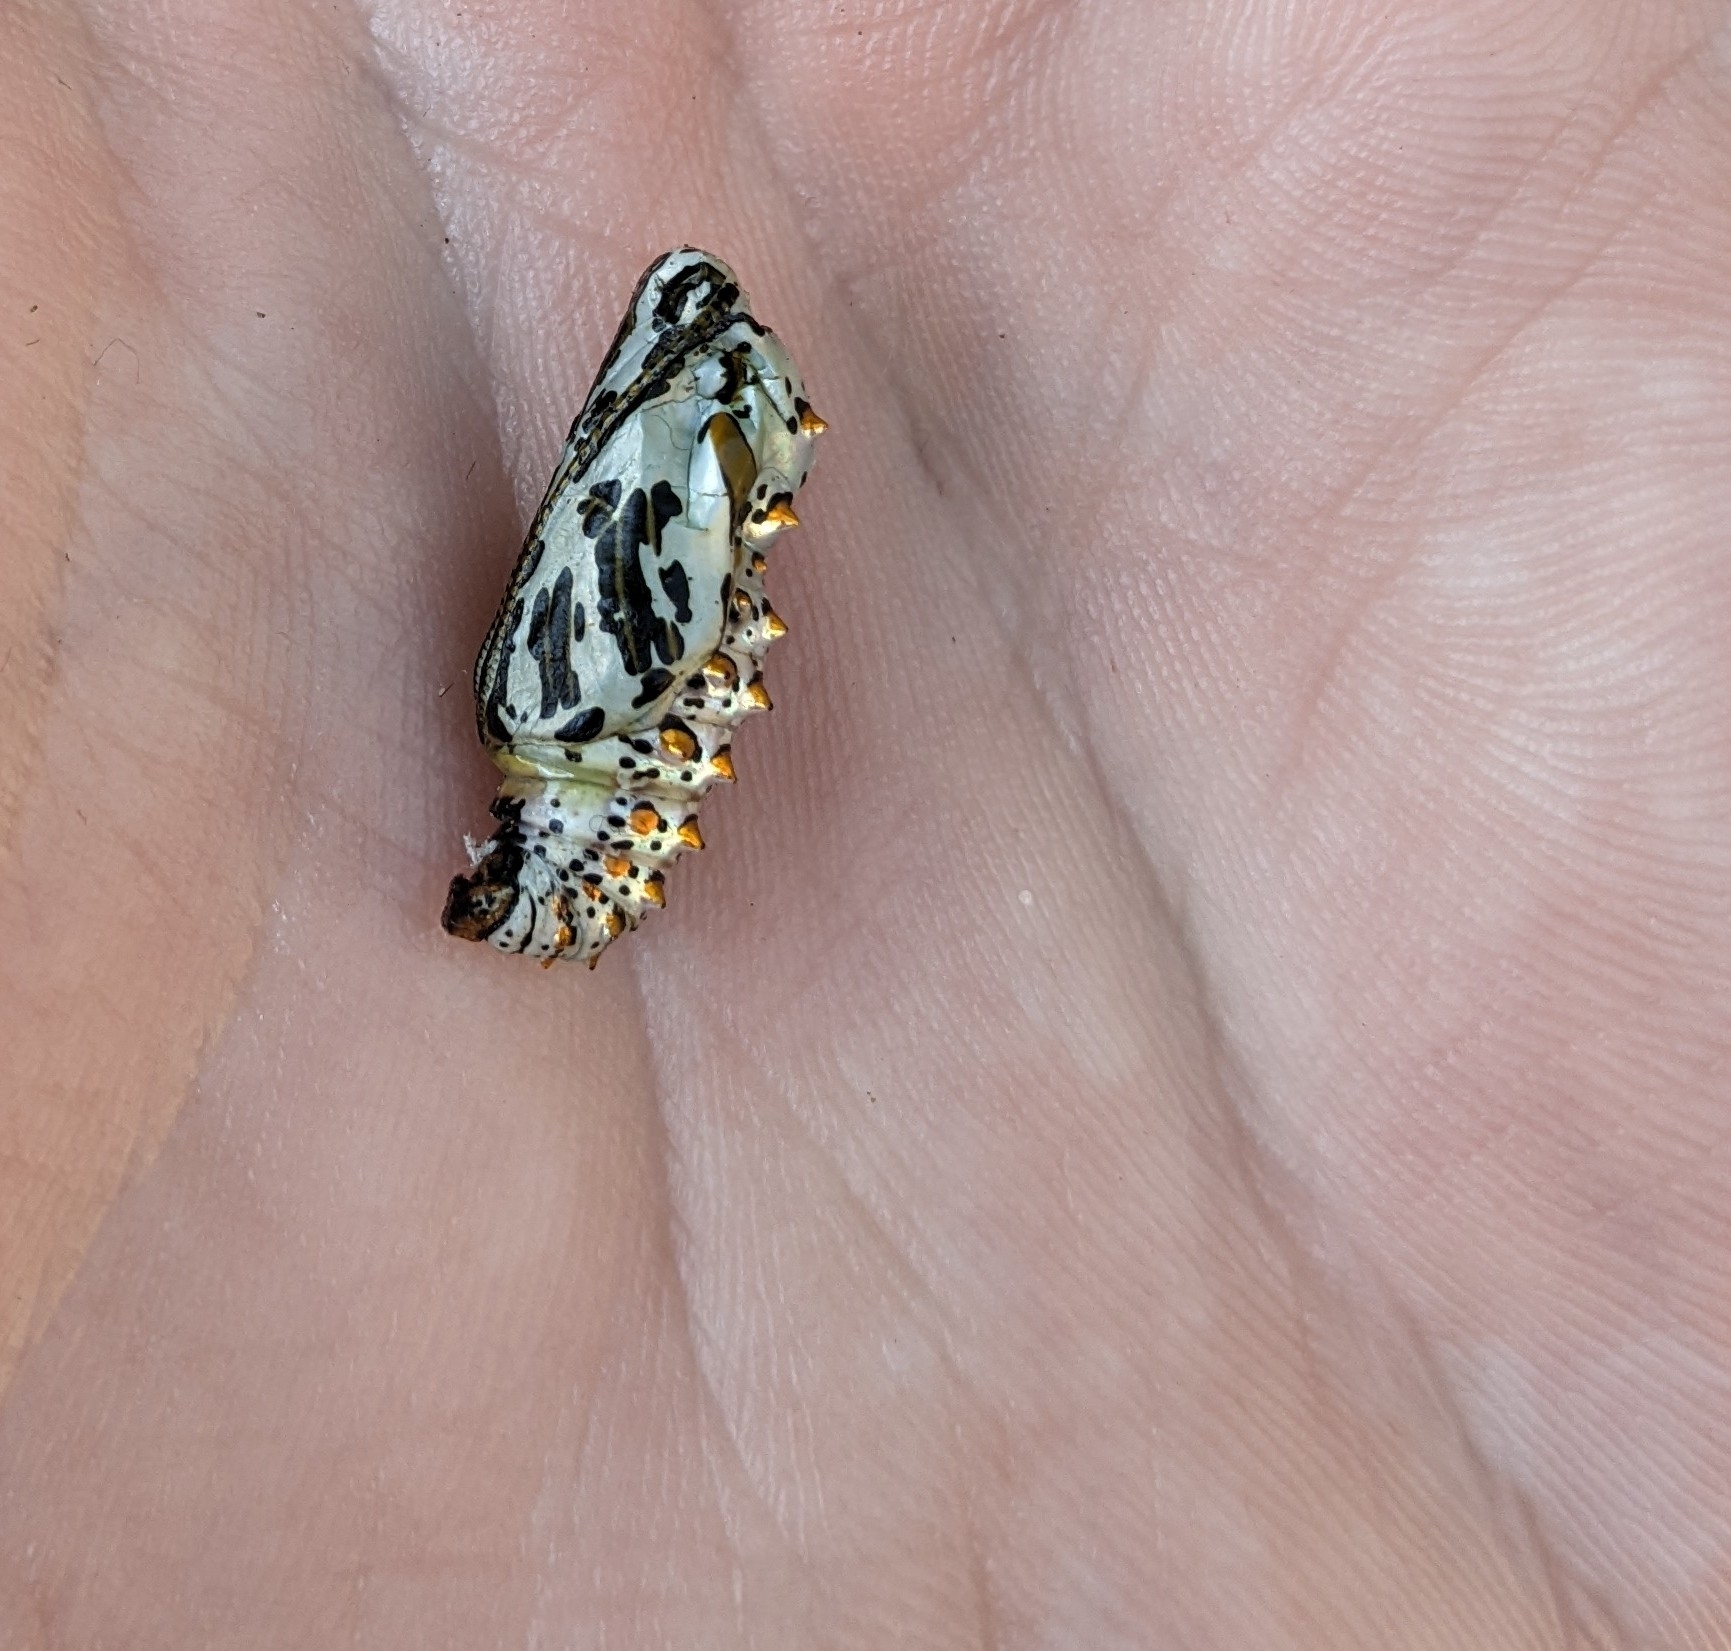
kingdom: Animalia
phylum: Arthropoda
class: Insecta
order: Lepidoptera
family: Nymphalidae
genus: Euptoieta
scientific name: Euptoieta claudia
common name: Variegated fritillary
